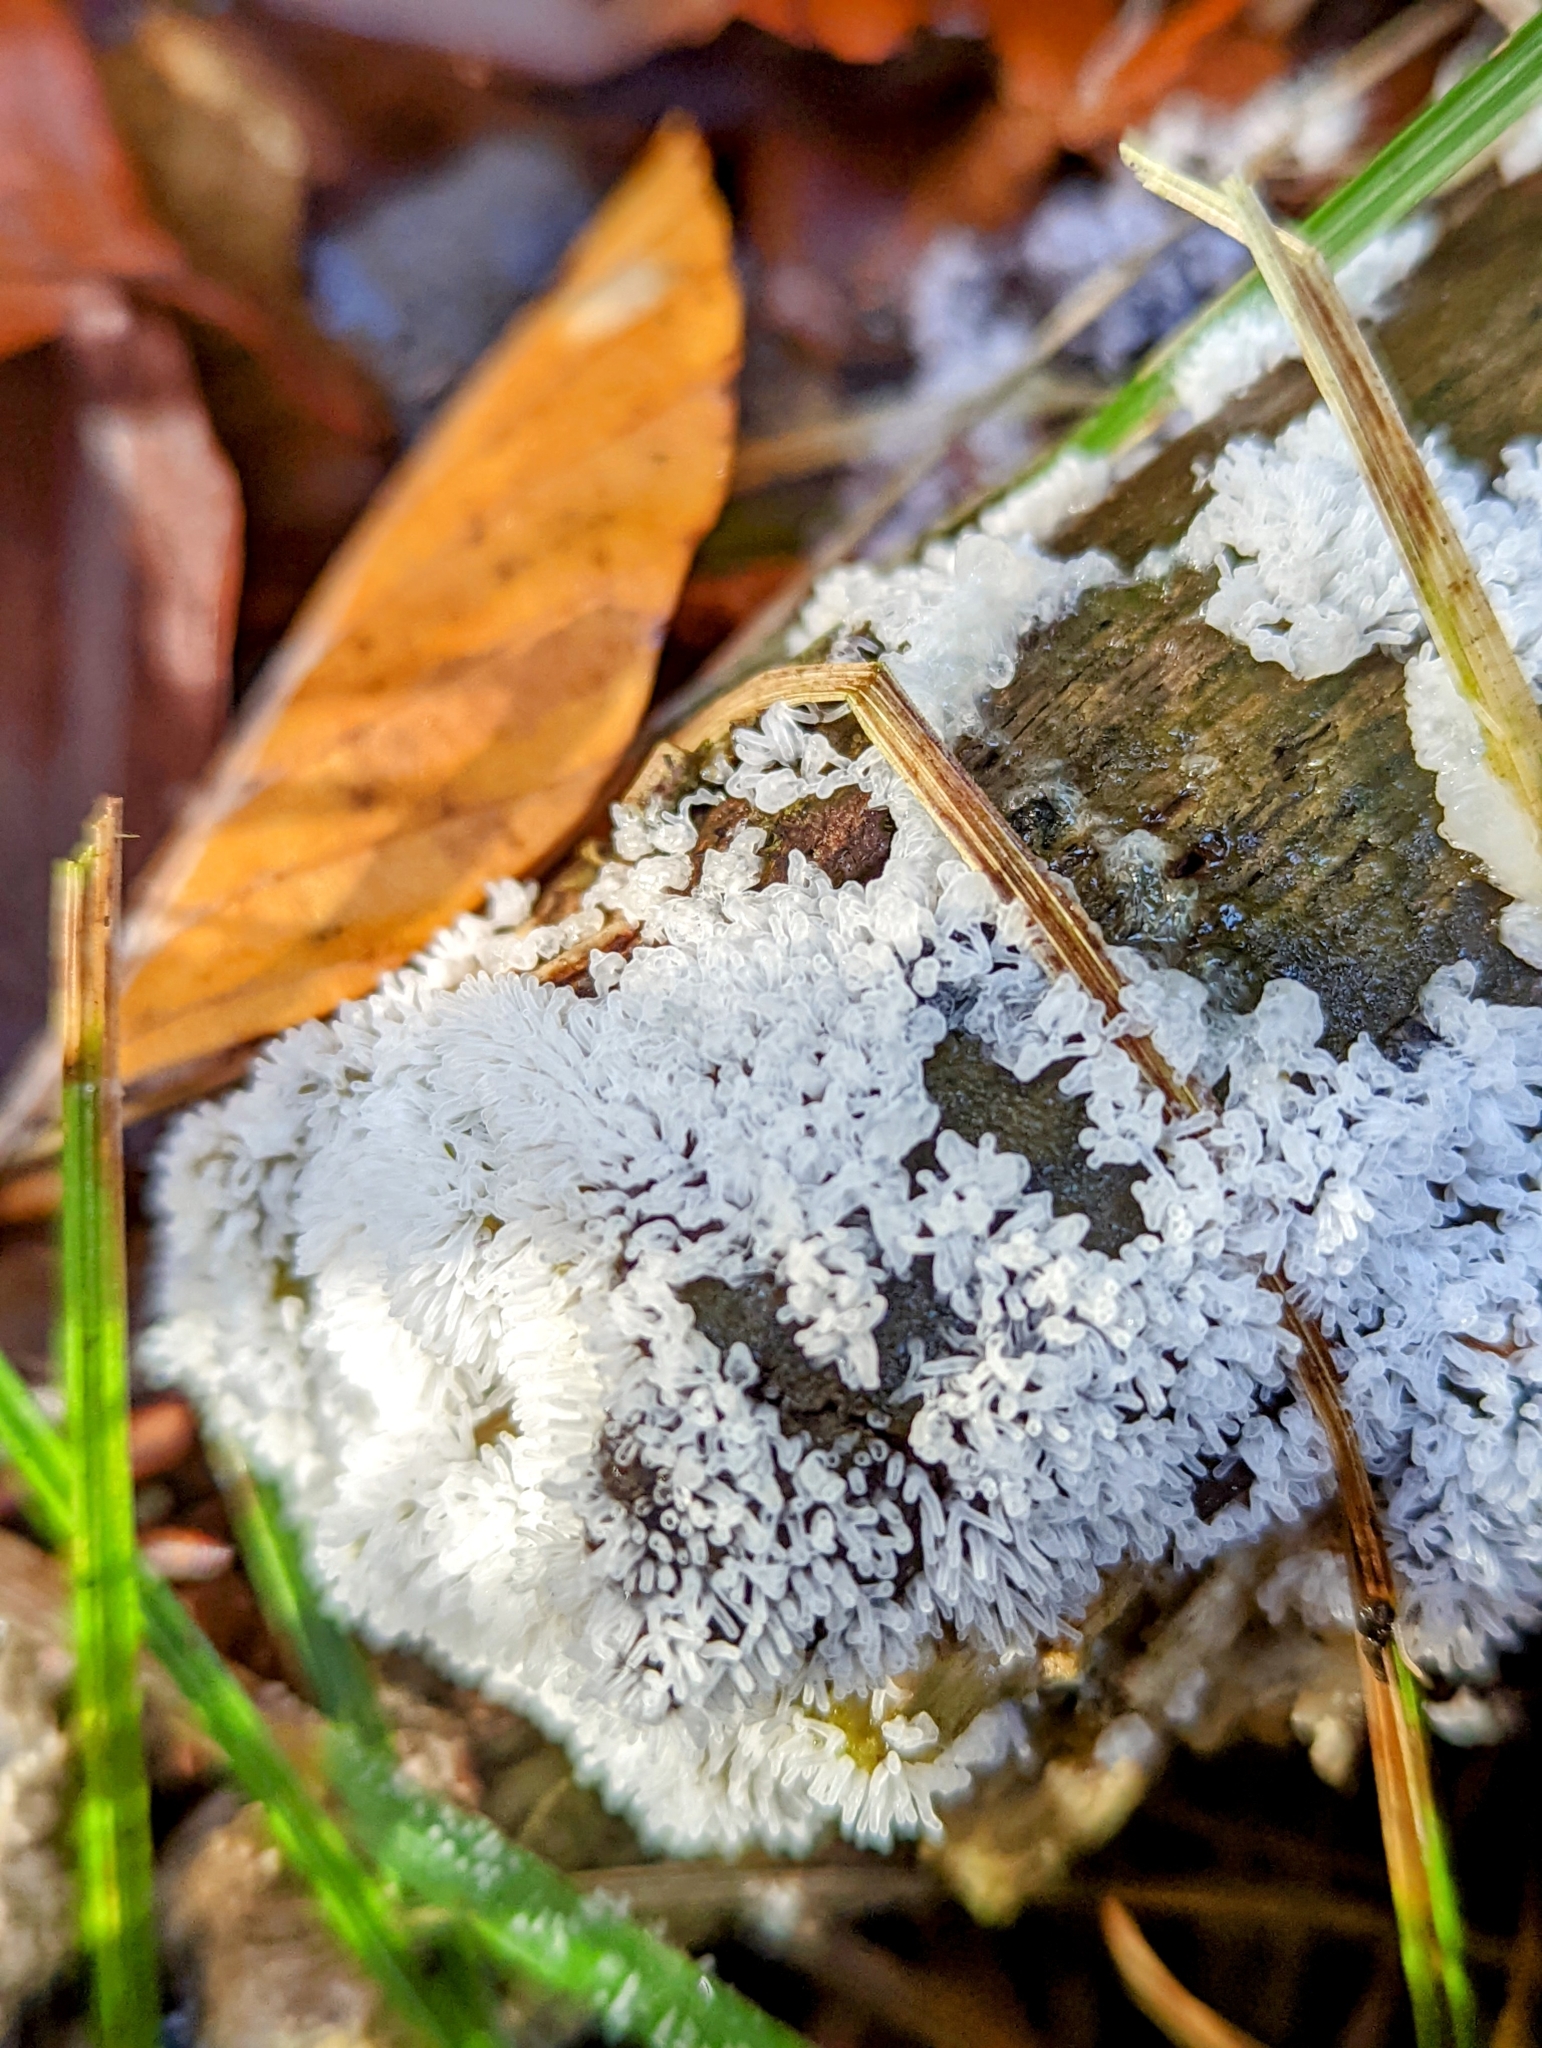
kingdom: Protozoa
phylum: Mycetozoa
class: Protosteliomycetes
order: Ceratiomyxales
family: Ceratiomyxaceae
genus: Ceratiomyxa
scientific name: Ceratiomyxa fruticulosa
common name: Honeycomb coral slime mold
